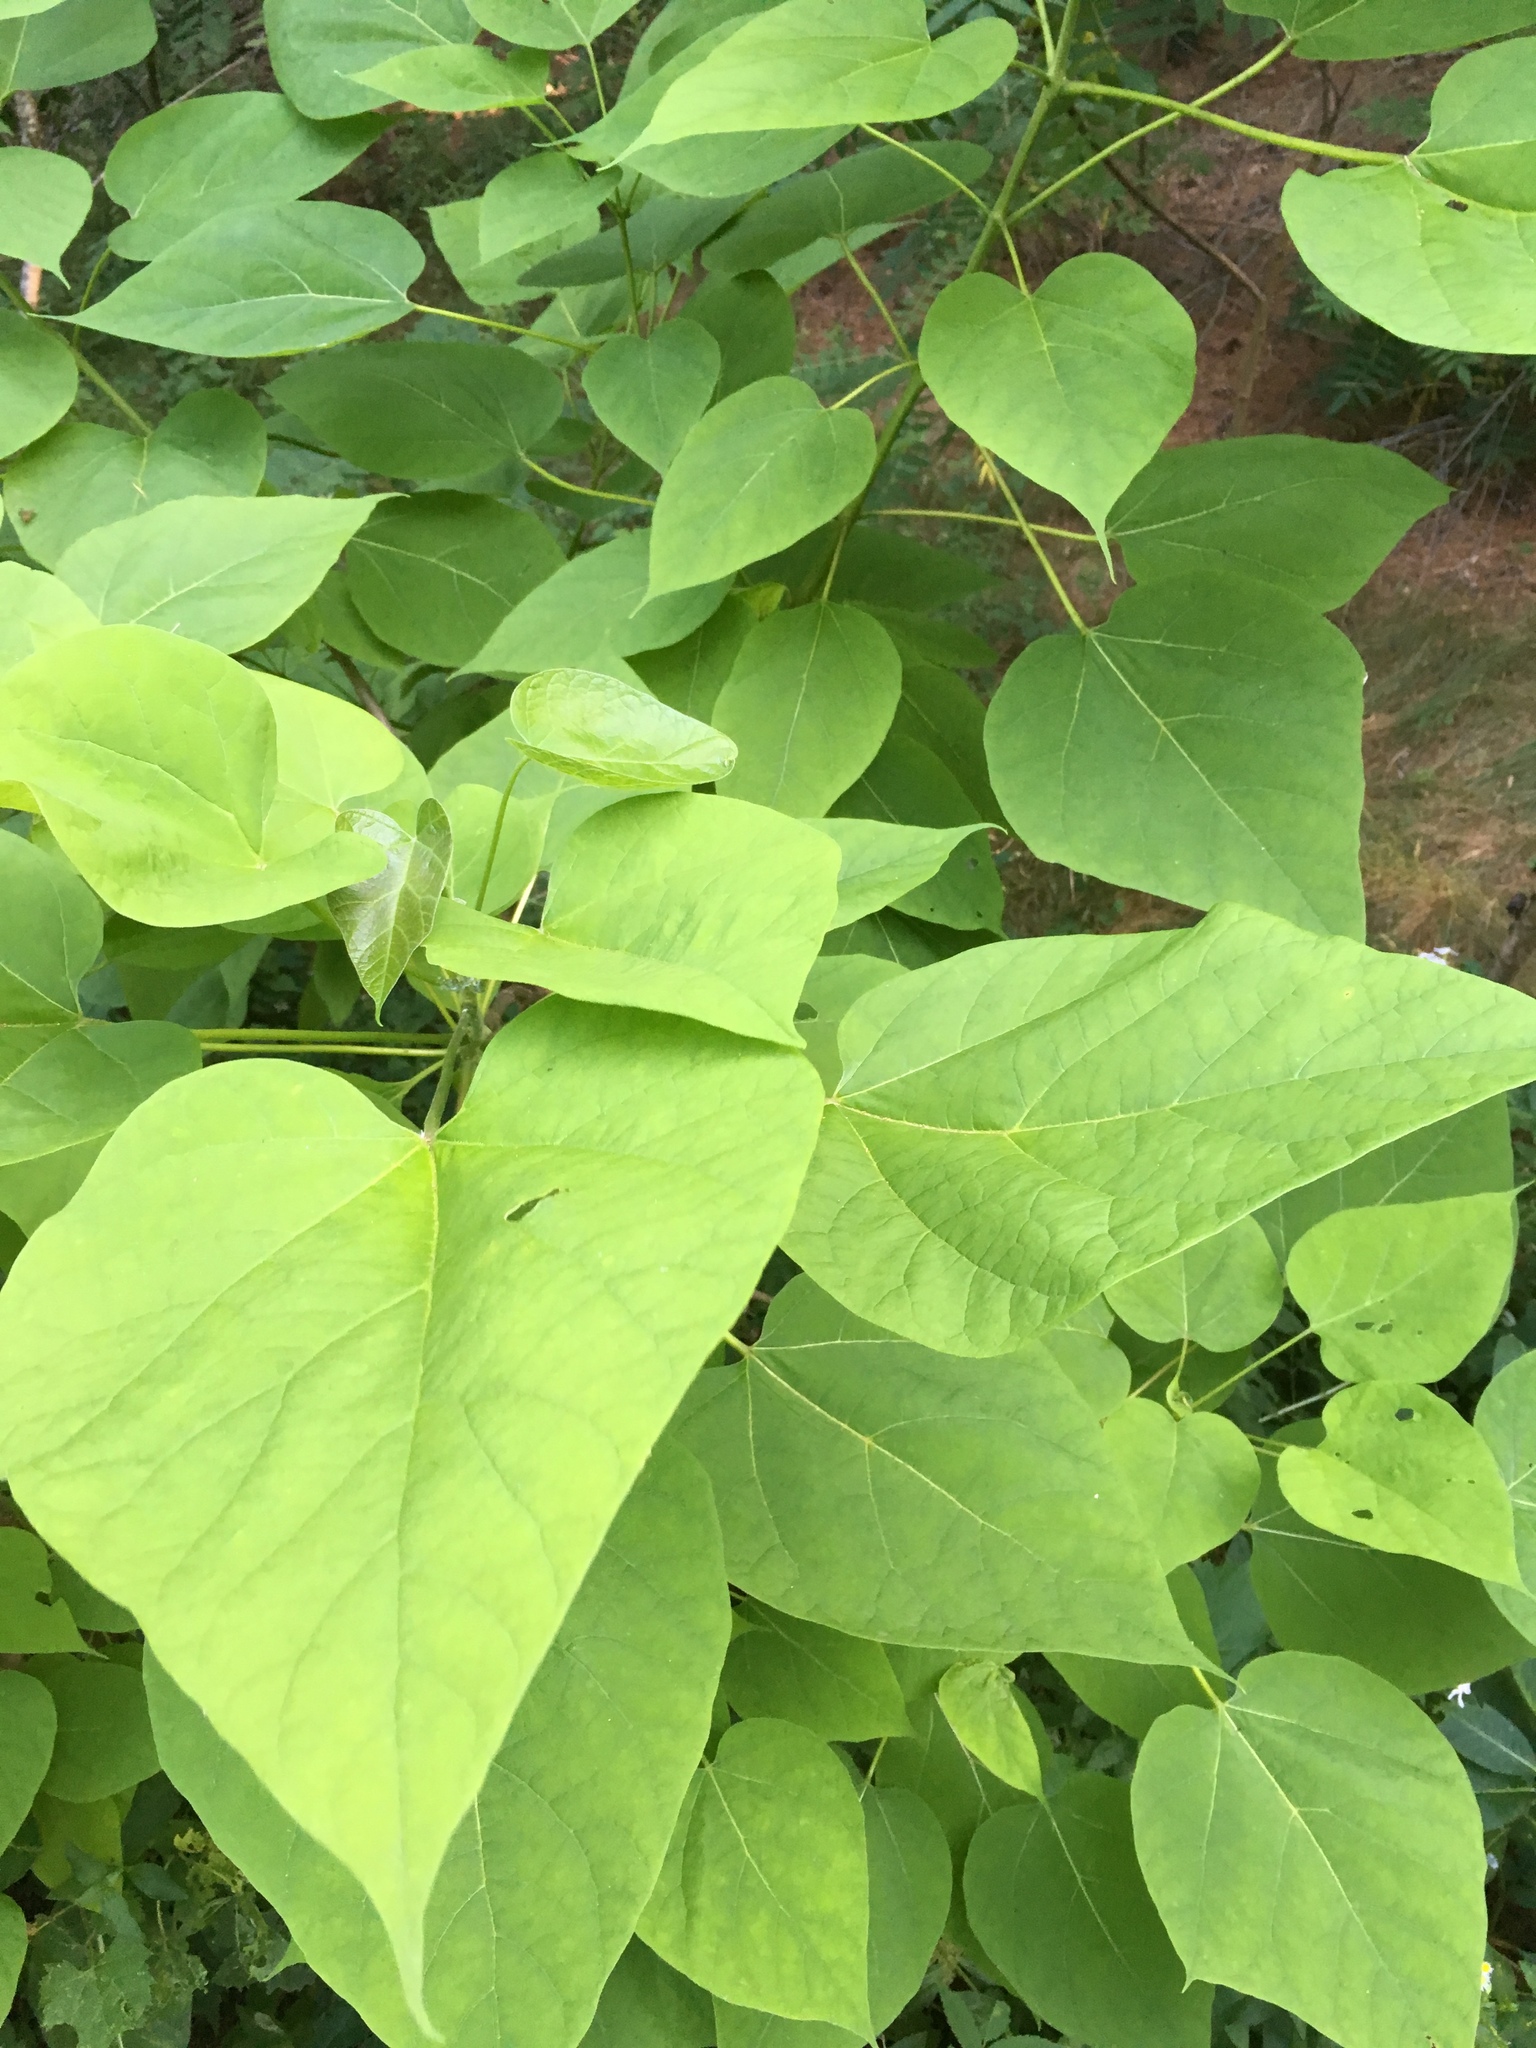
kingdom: Plantae
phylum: Tracheophyta
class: Magnoliopsida
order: Lamiales
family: Bignoniaceae
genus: Catalpa
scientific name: Catalpa speciosa
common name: Northern catalpa
